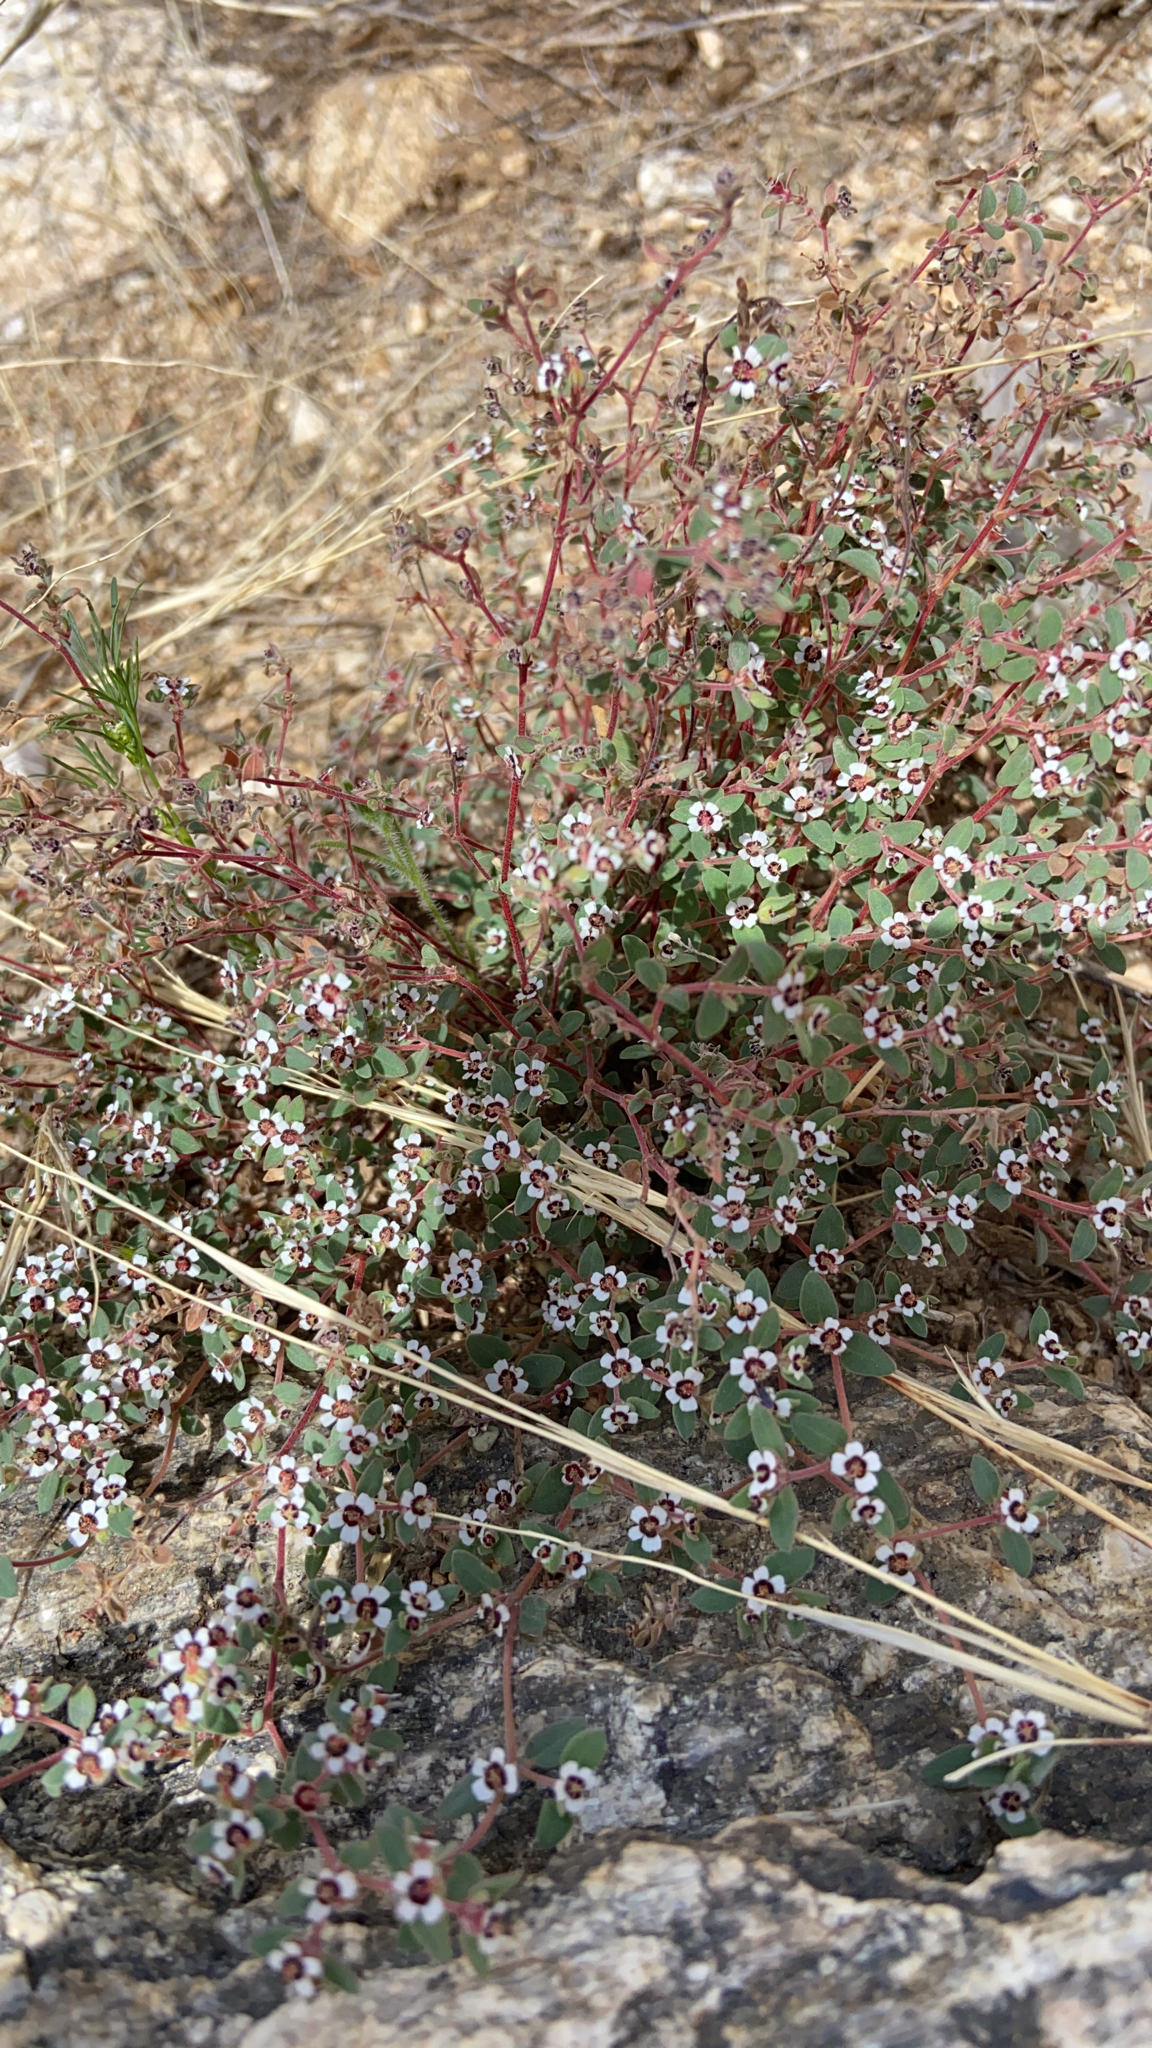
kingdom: Plantae
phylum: Tracheophyta
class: Magnoliopsida
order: Malpighiales
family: Euphorbiaceae
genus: Euphorbia
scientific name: Euphorbia melanadenia
